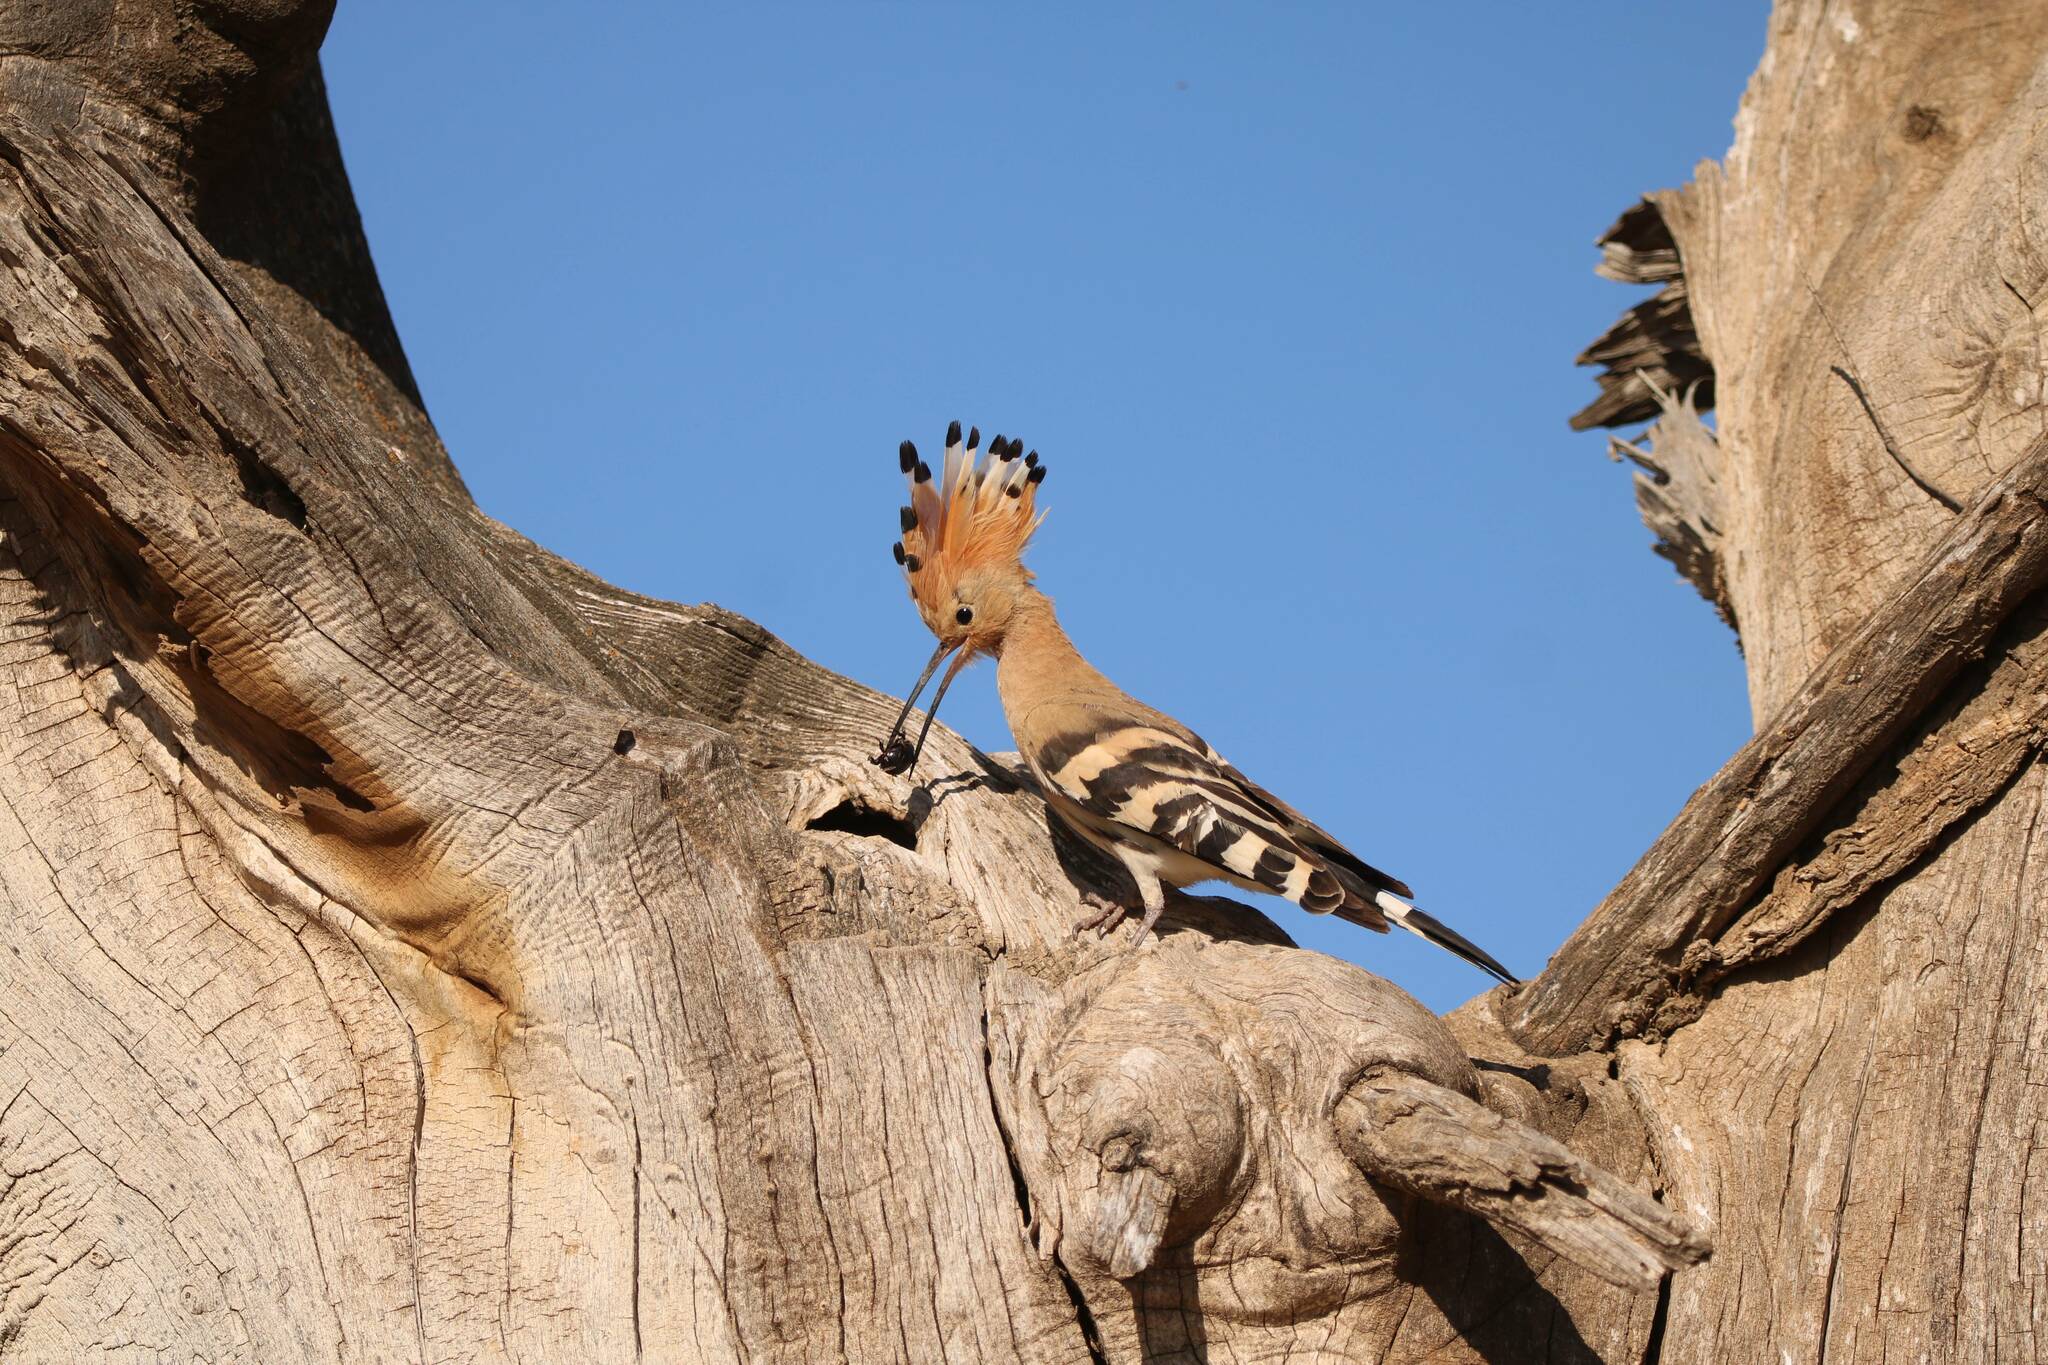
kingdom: Animalia
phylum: Chordata
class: Aves
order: Bucerotiformes
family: Upupidae
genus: Upupa
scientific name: Upupa epops
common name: Eurasian hoopoe
